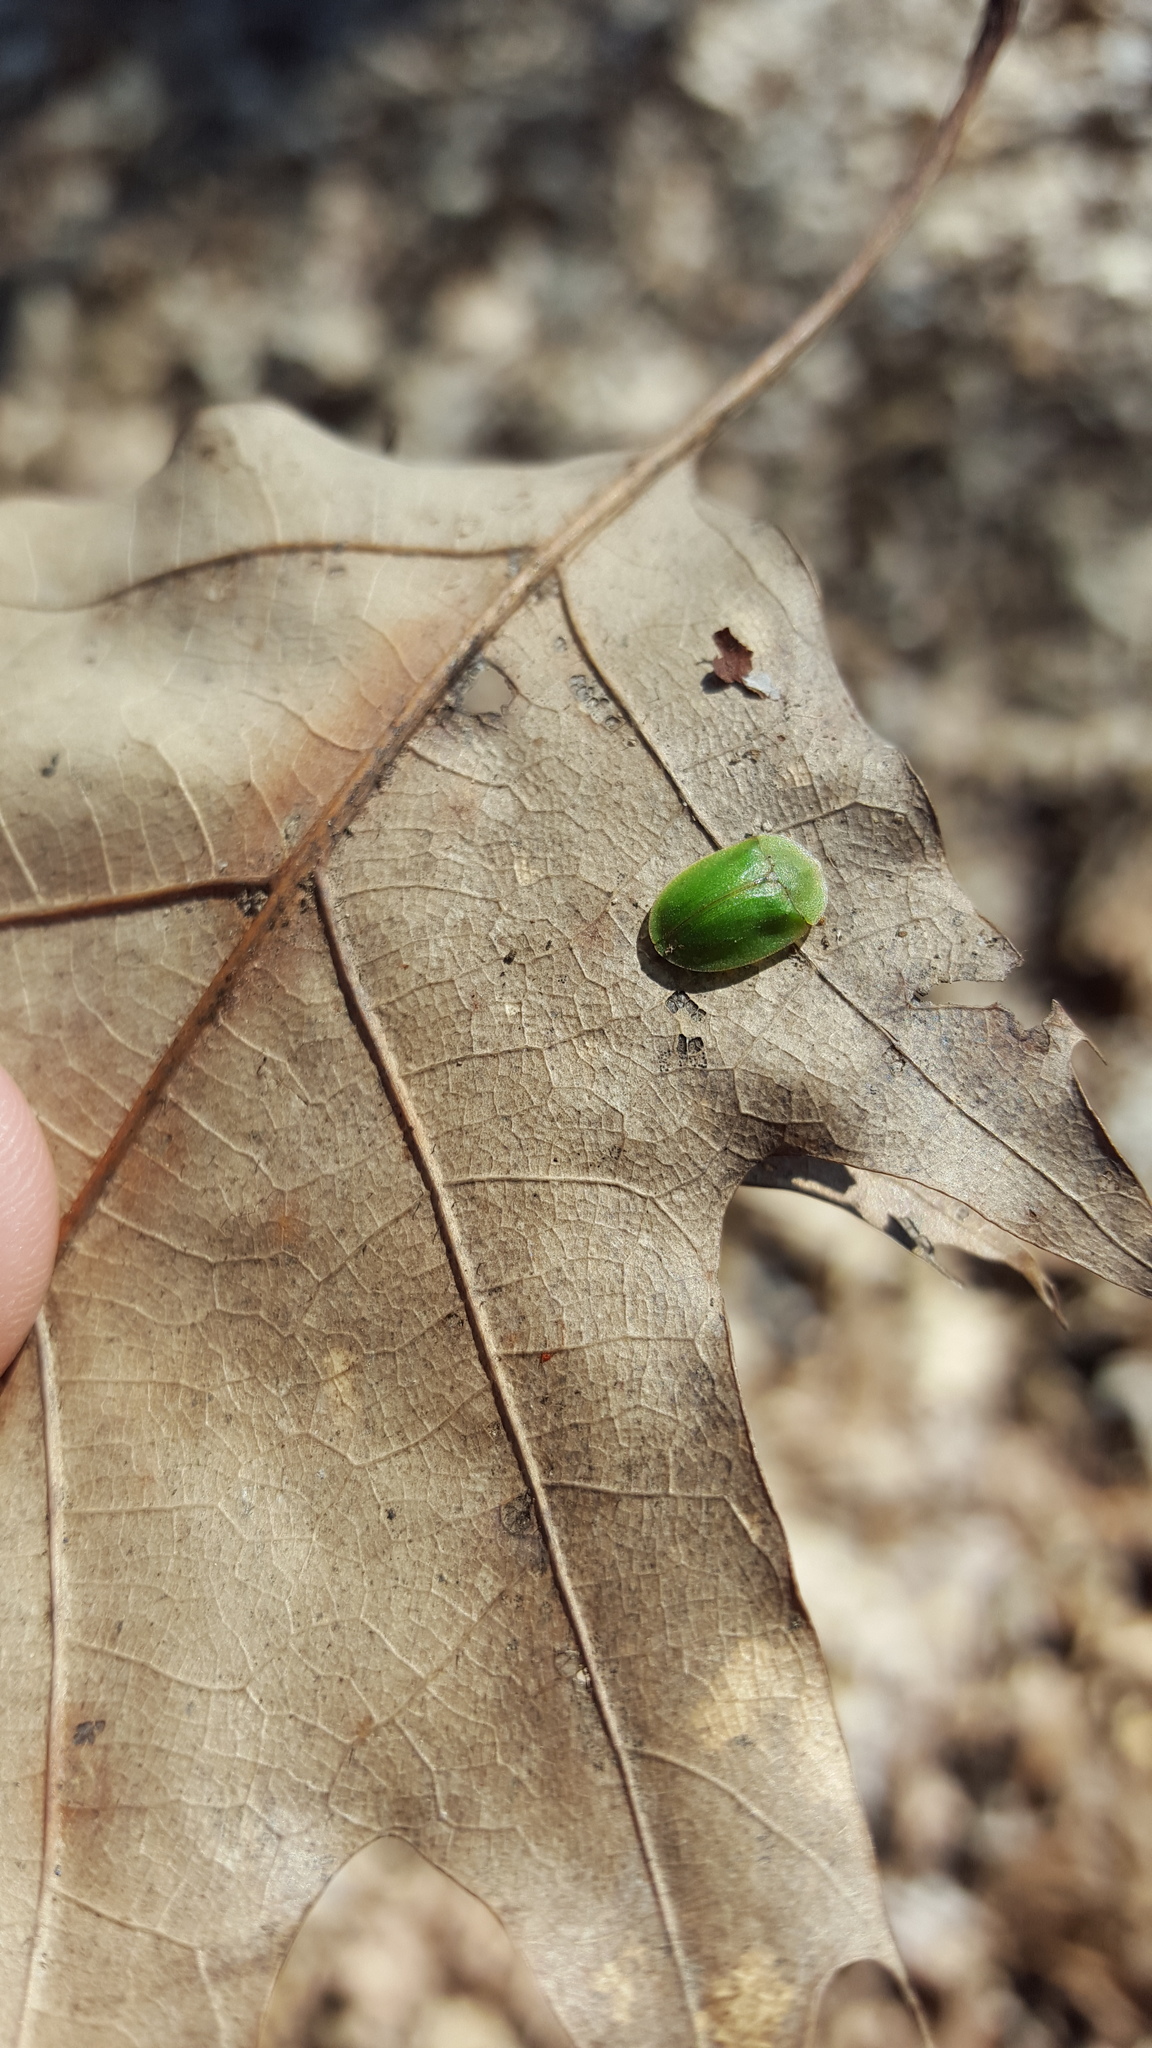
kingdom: Animalia
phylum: Arthropoda
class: Insecta
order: Coleoptera
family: Chrysomelidae
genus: Cassida
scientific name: Cassida rubiginosa
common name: Thistle tortoise beetle
